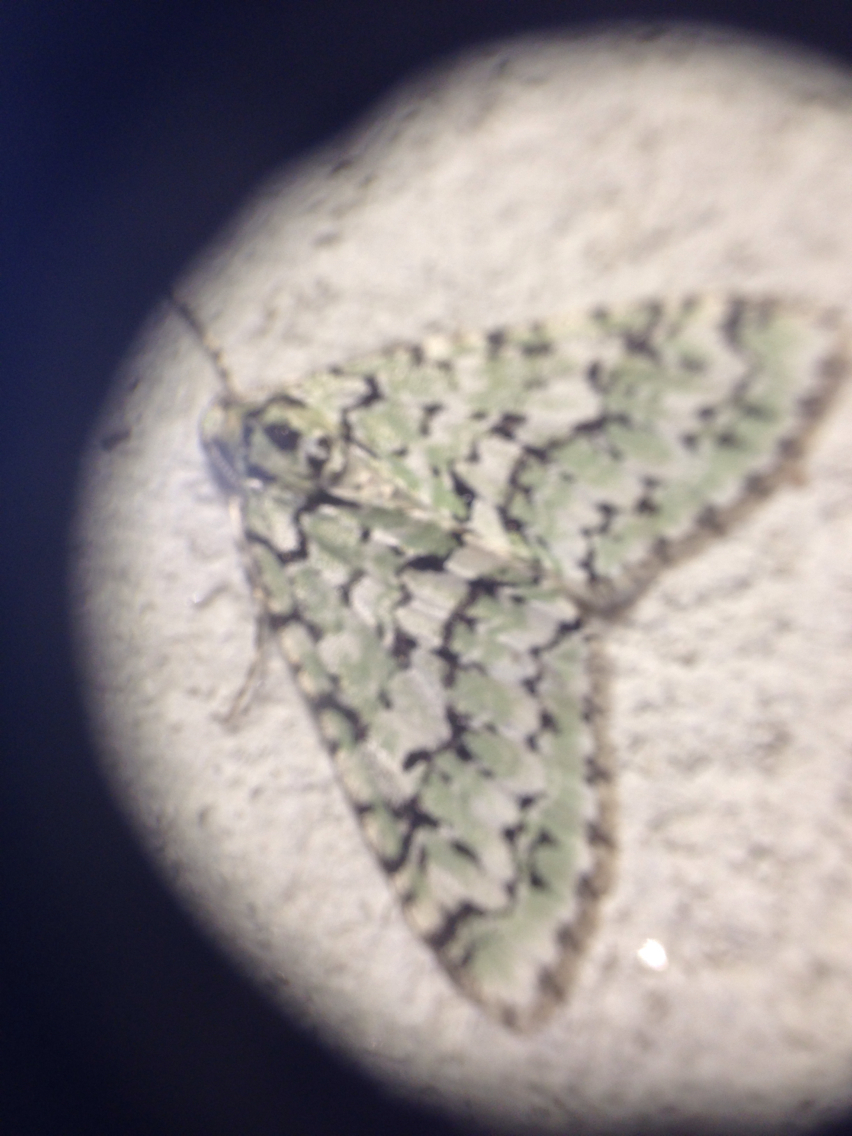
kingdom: Animalia
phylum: Arthropoda
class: Insecta
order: Lepidoptera
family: Geometridae
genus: Cladara
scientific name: Cladara atroliturata
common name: Scribbler
